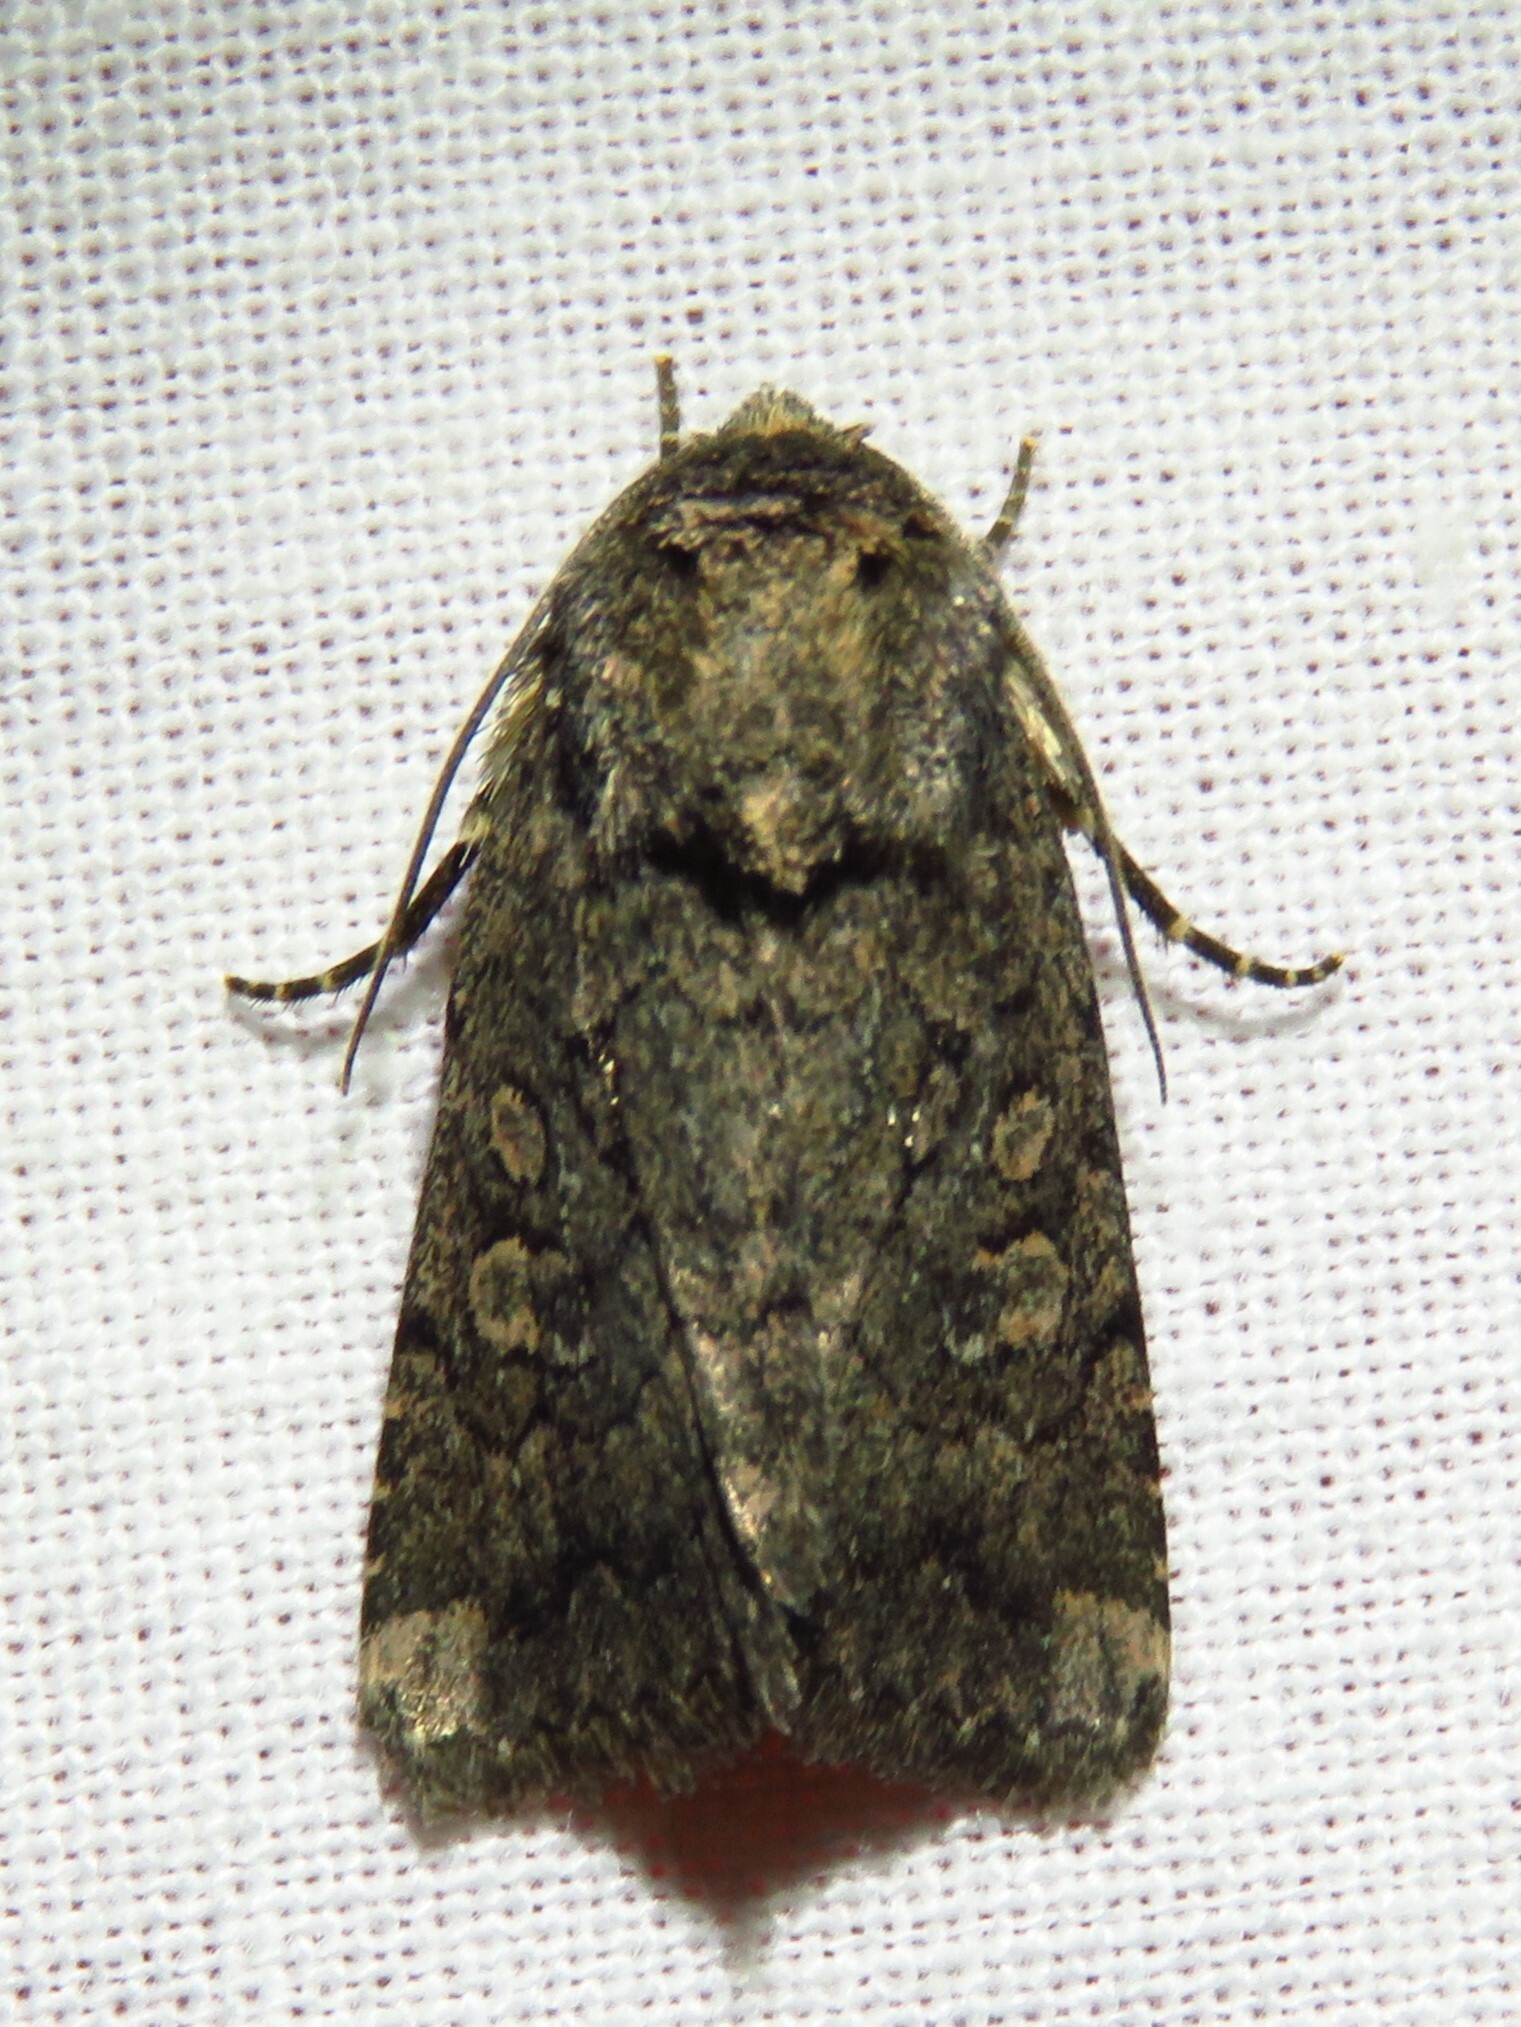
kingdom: Animalia
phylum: Arthropoda
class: Insecta
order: Lepidoptera
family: Noctuidae
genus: Protorthodes
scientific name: Protorthodes texana
